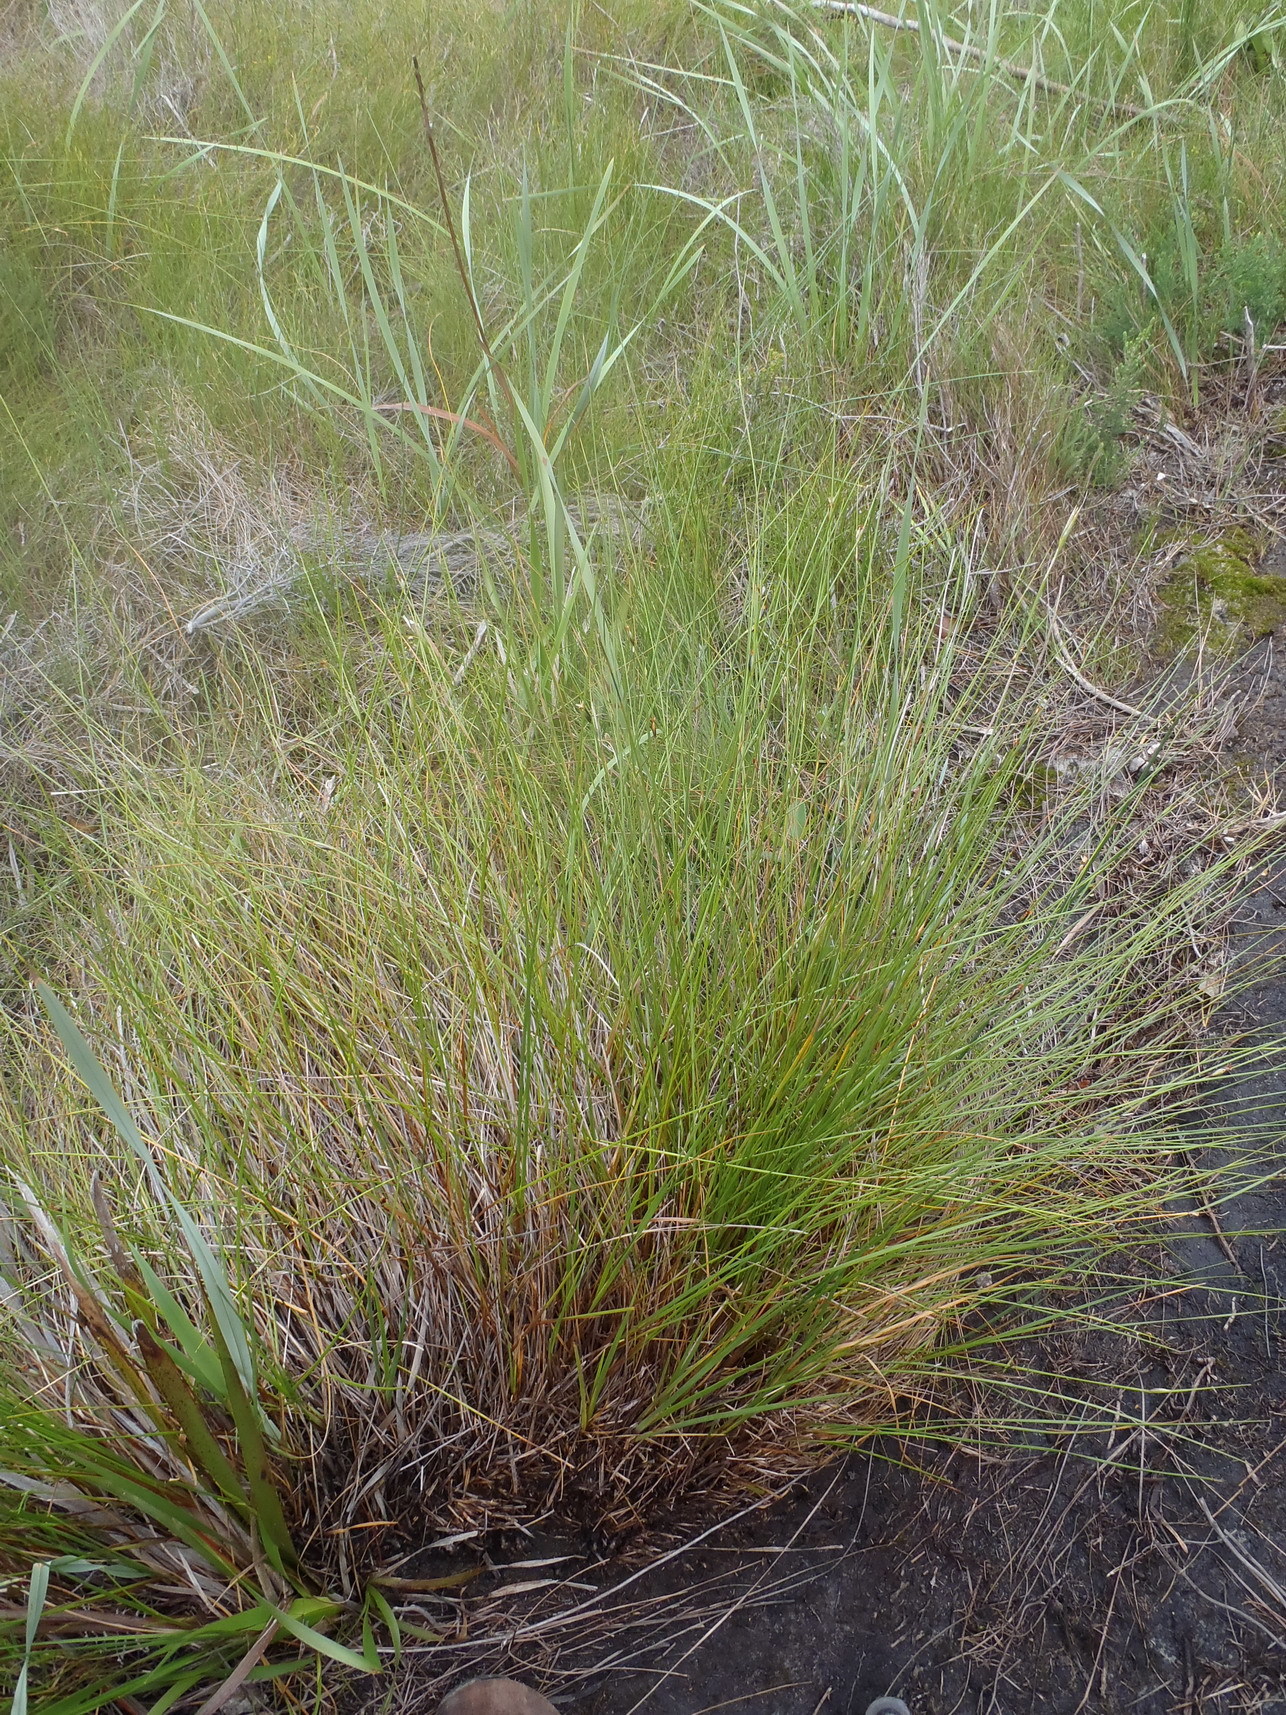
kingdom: Plantae
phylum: Tracheophyta
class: Liliopsida
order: Poales
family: Cyperaceae
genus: Chrysitrix
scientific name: Chrysitrix capensis
